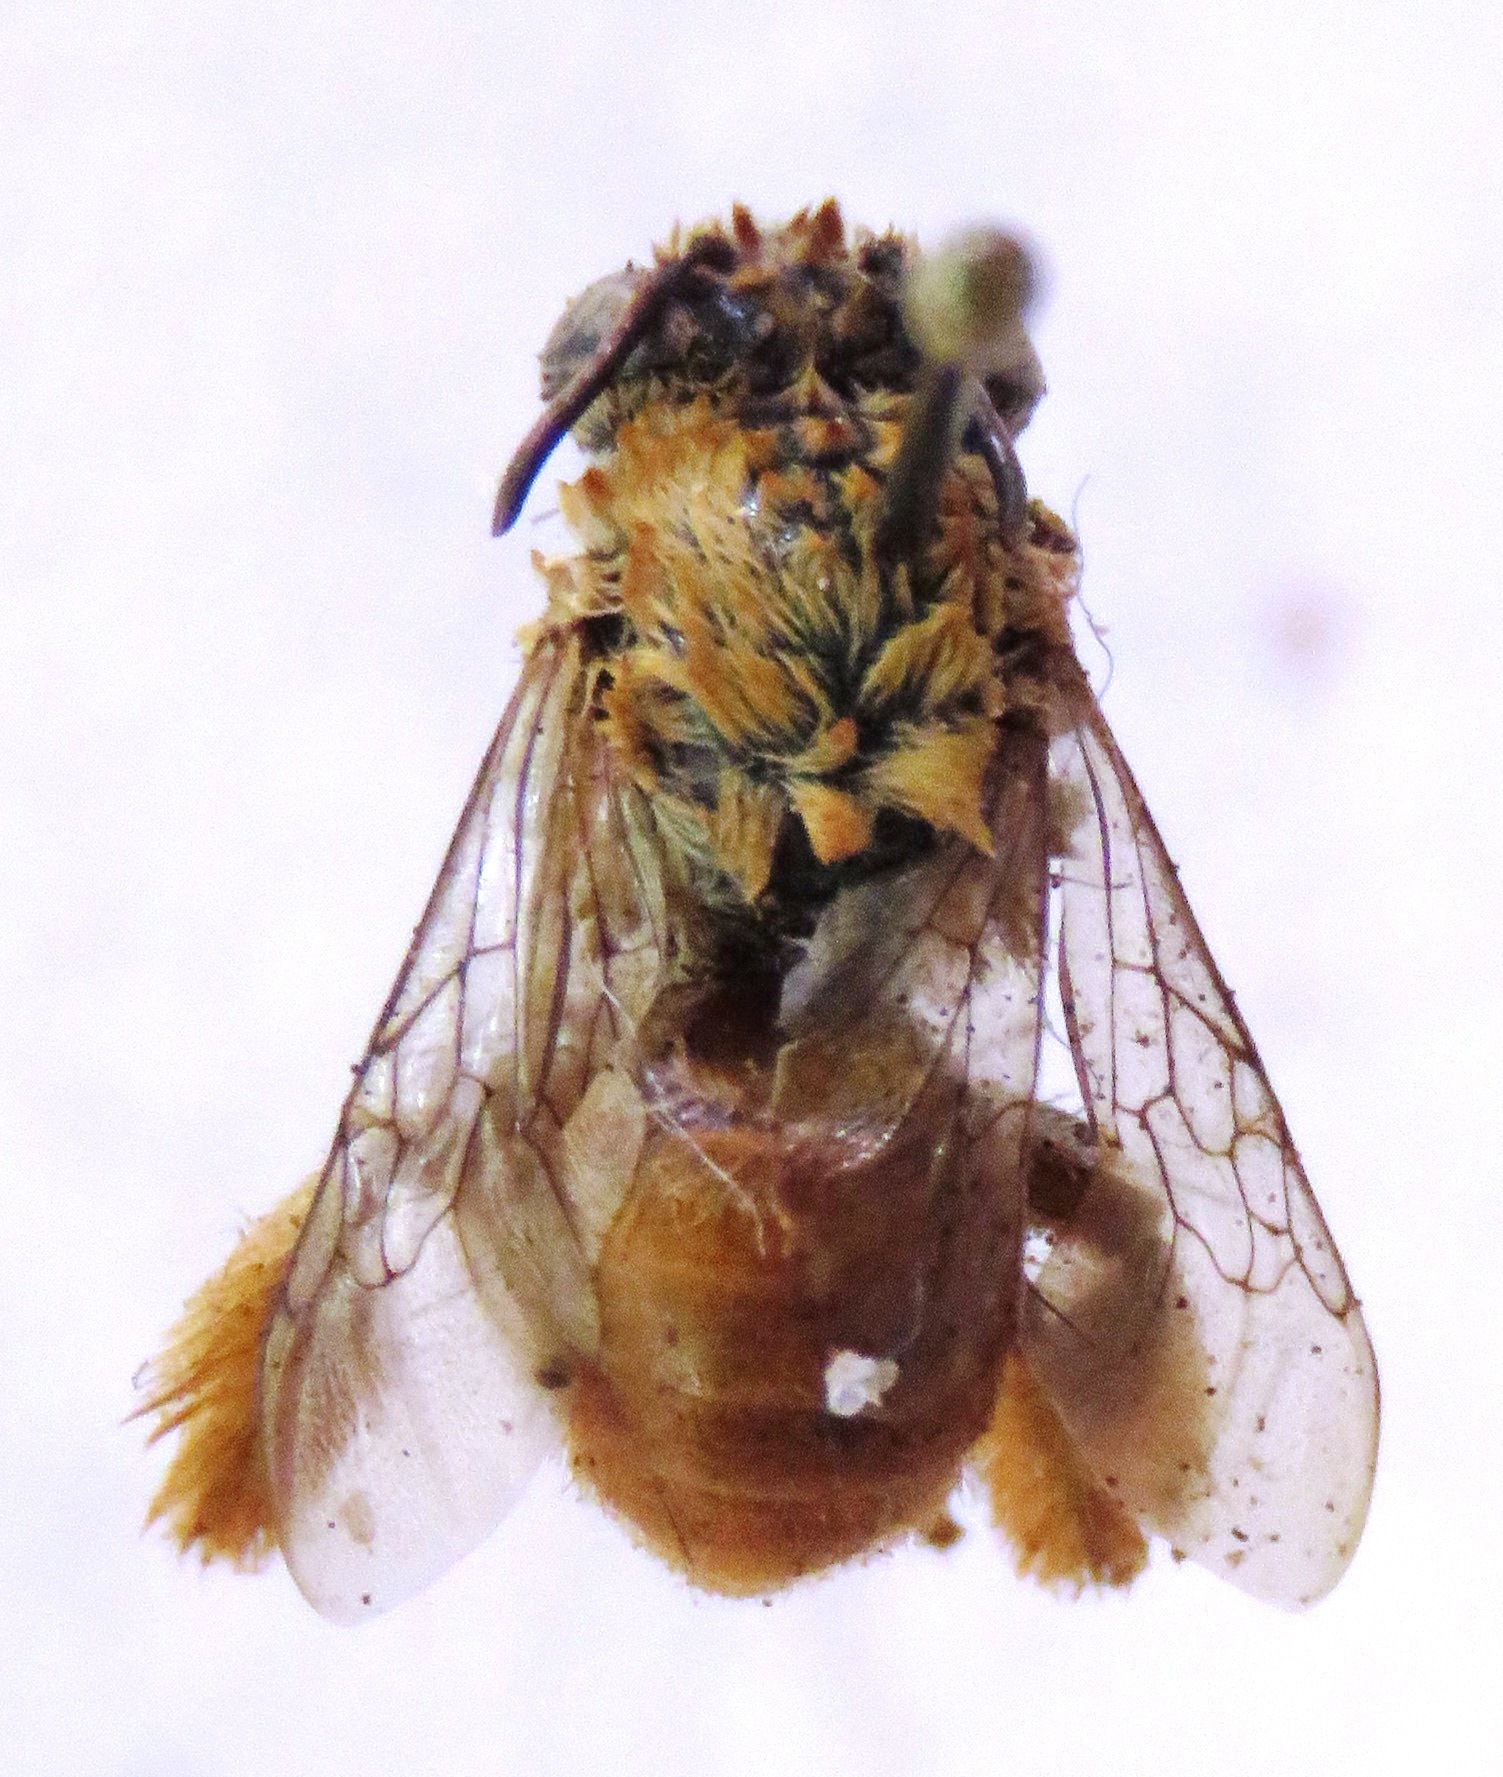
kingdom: Animalia
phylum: Arthropoda
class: Insecta
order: Hymenoptera
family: Apidae
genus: Centris
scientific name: Centris analis
